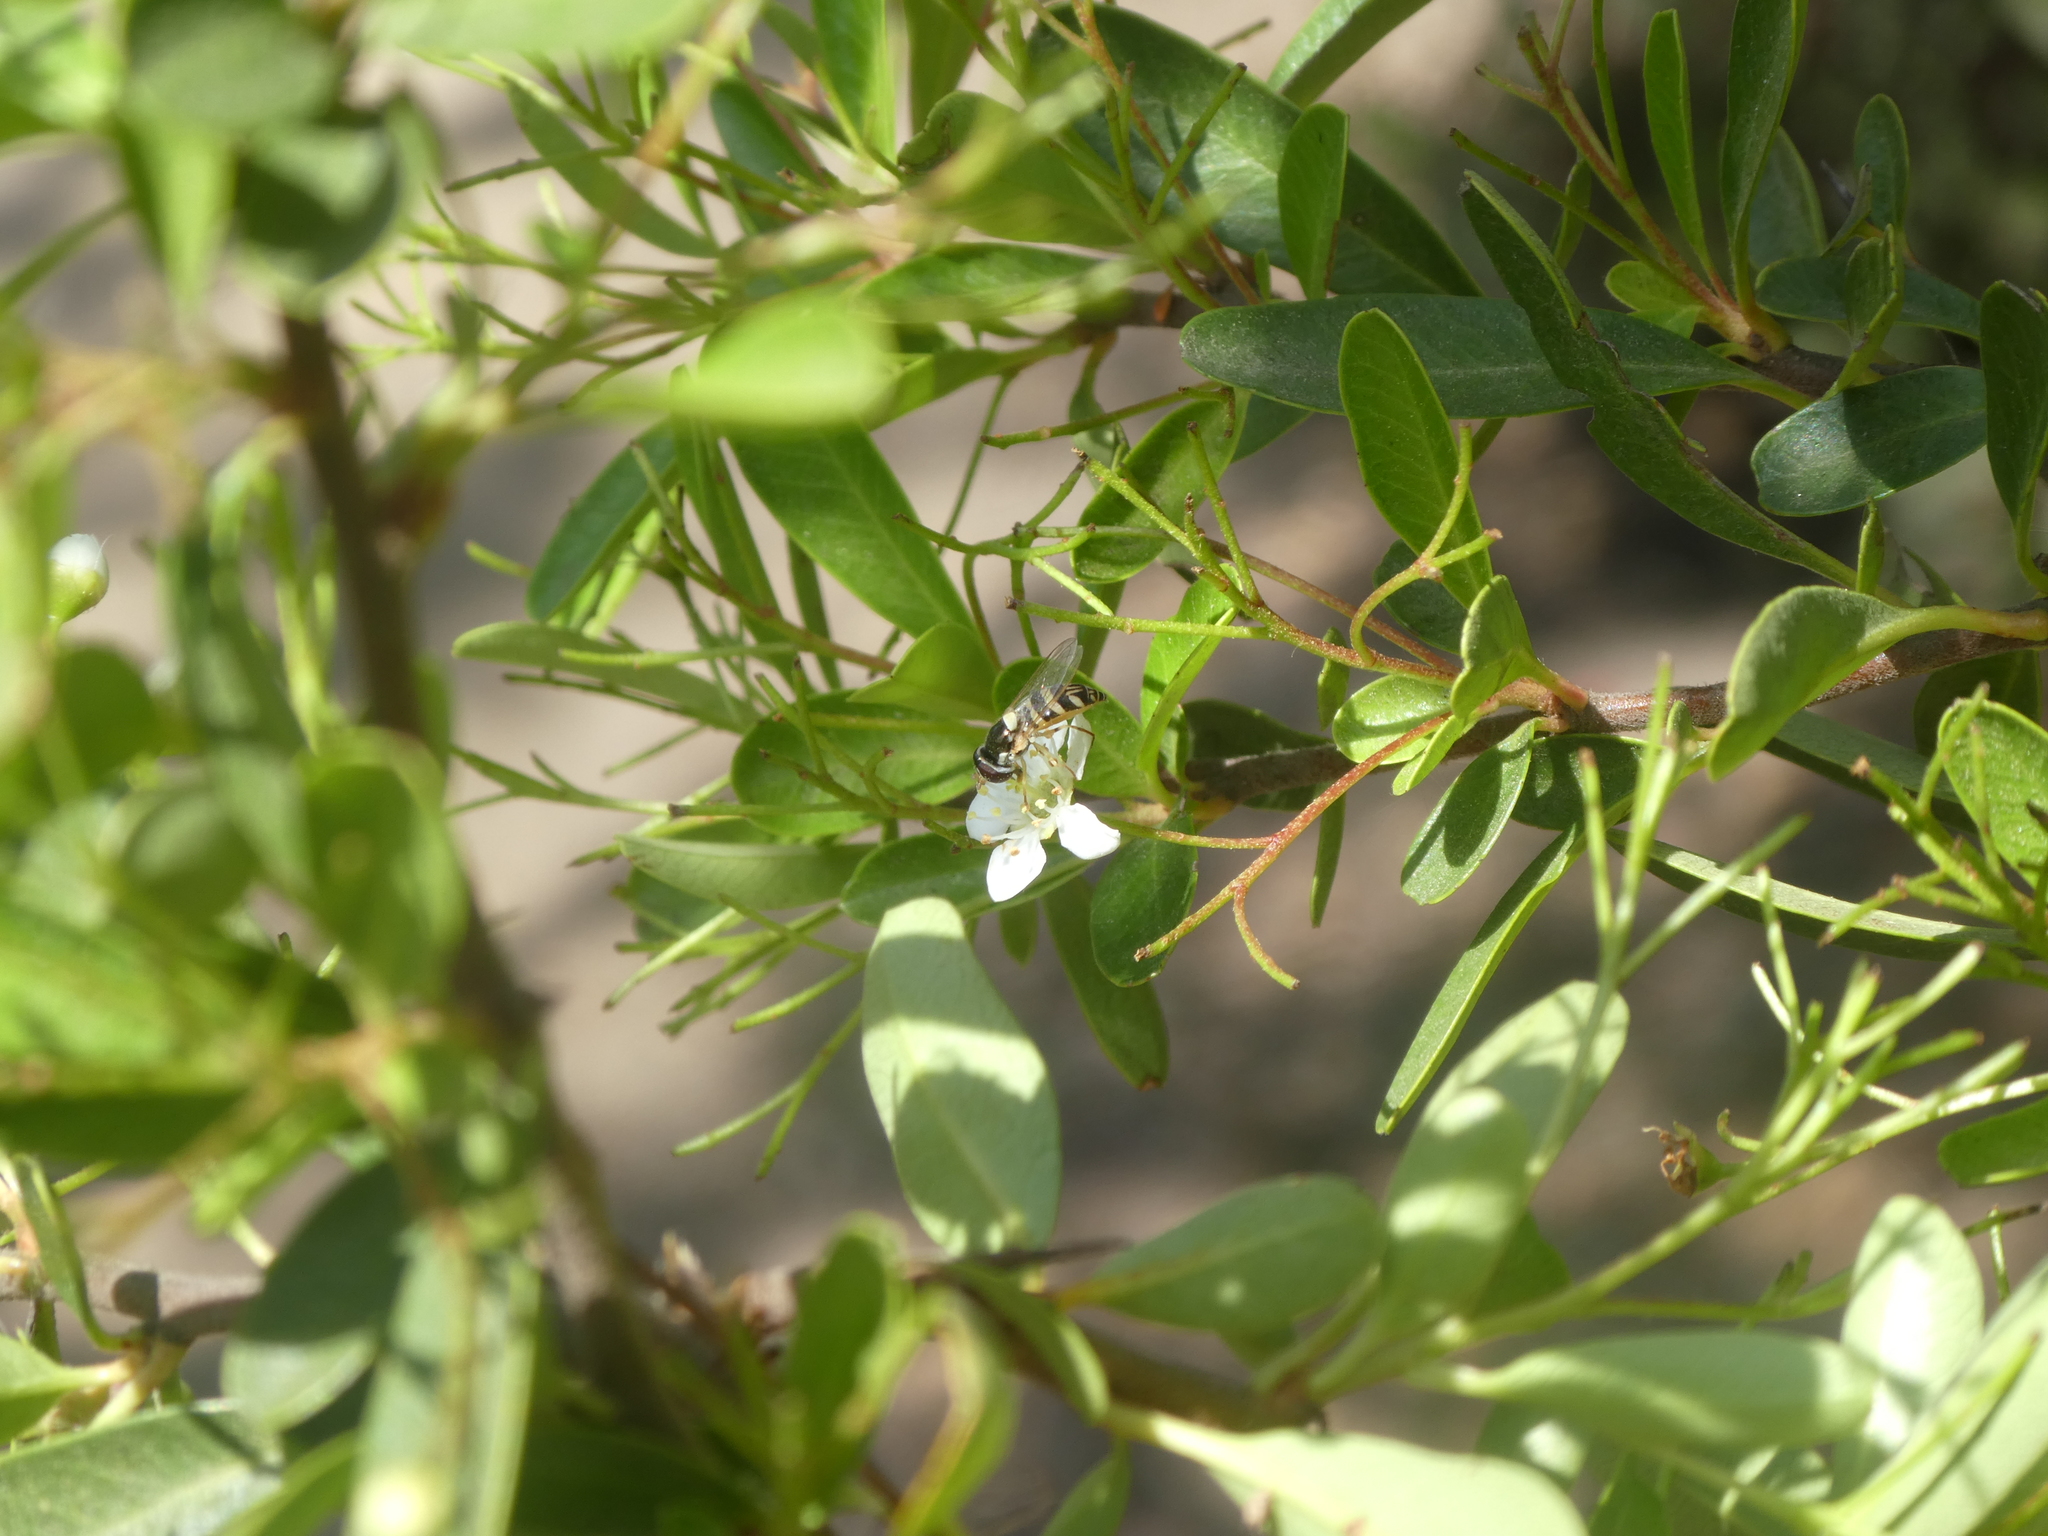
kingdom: Animalia
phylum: Arthropoda
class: Insecta
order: Diptera
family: Syrphidae
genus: Allograpta
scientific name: Allograpta exotica
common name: Syrphid fly
